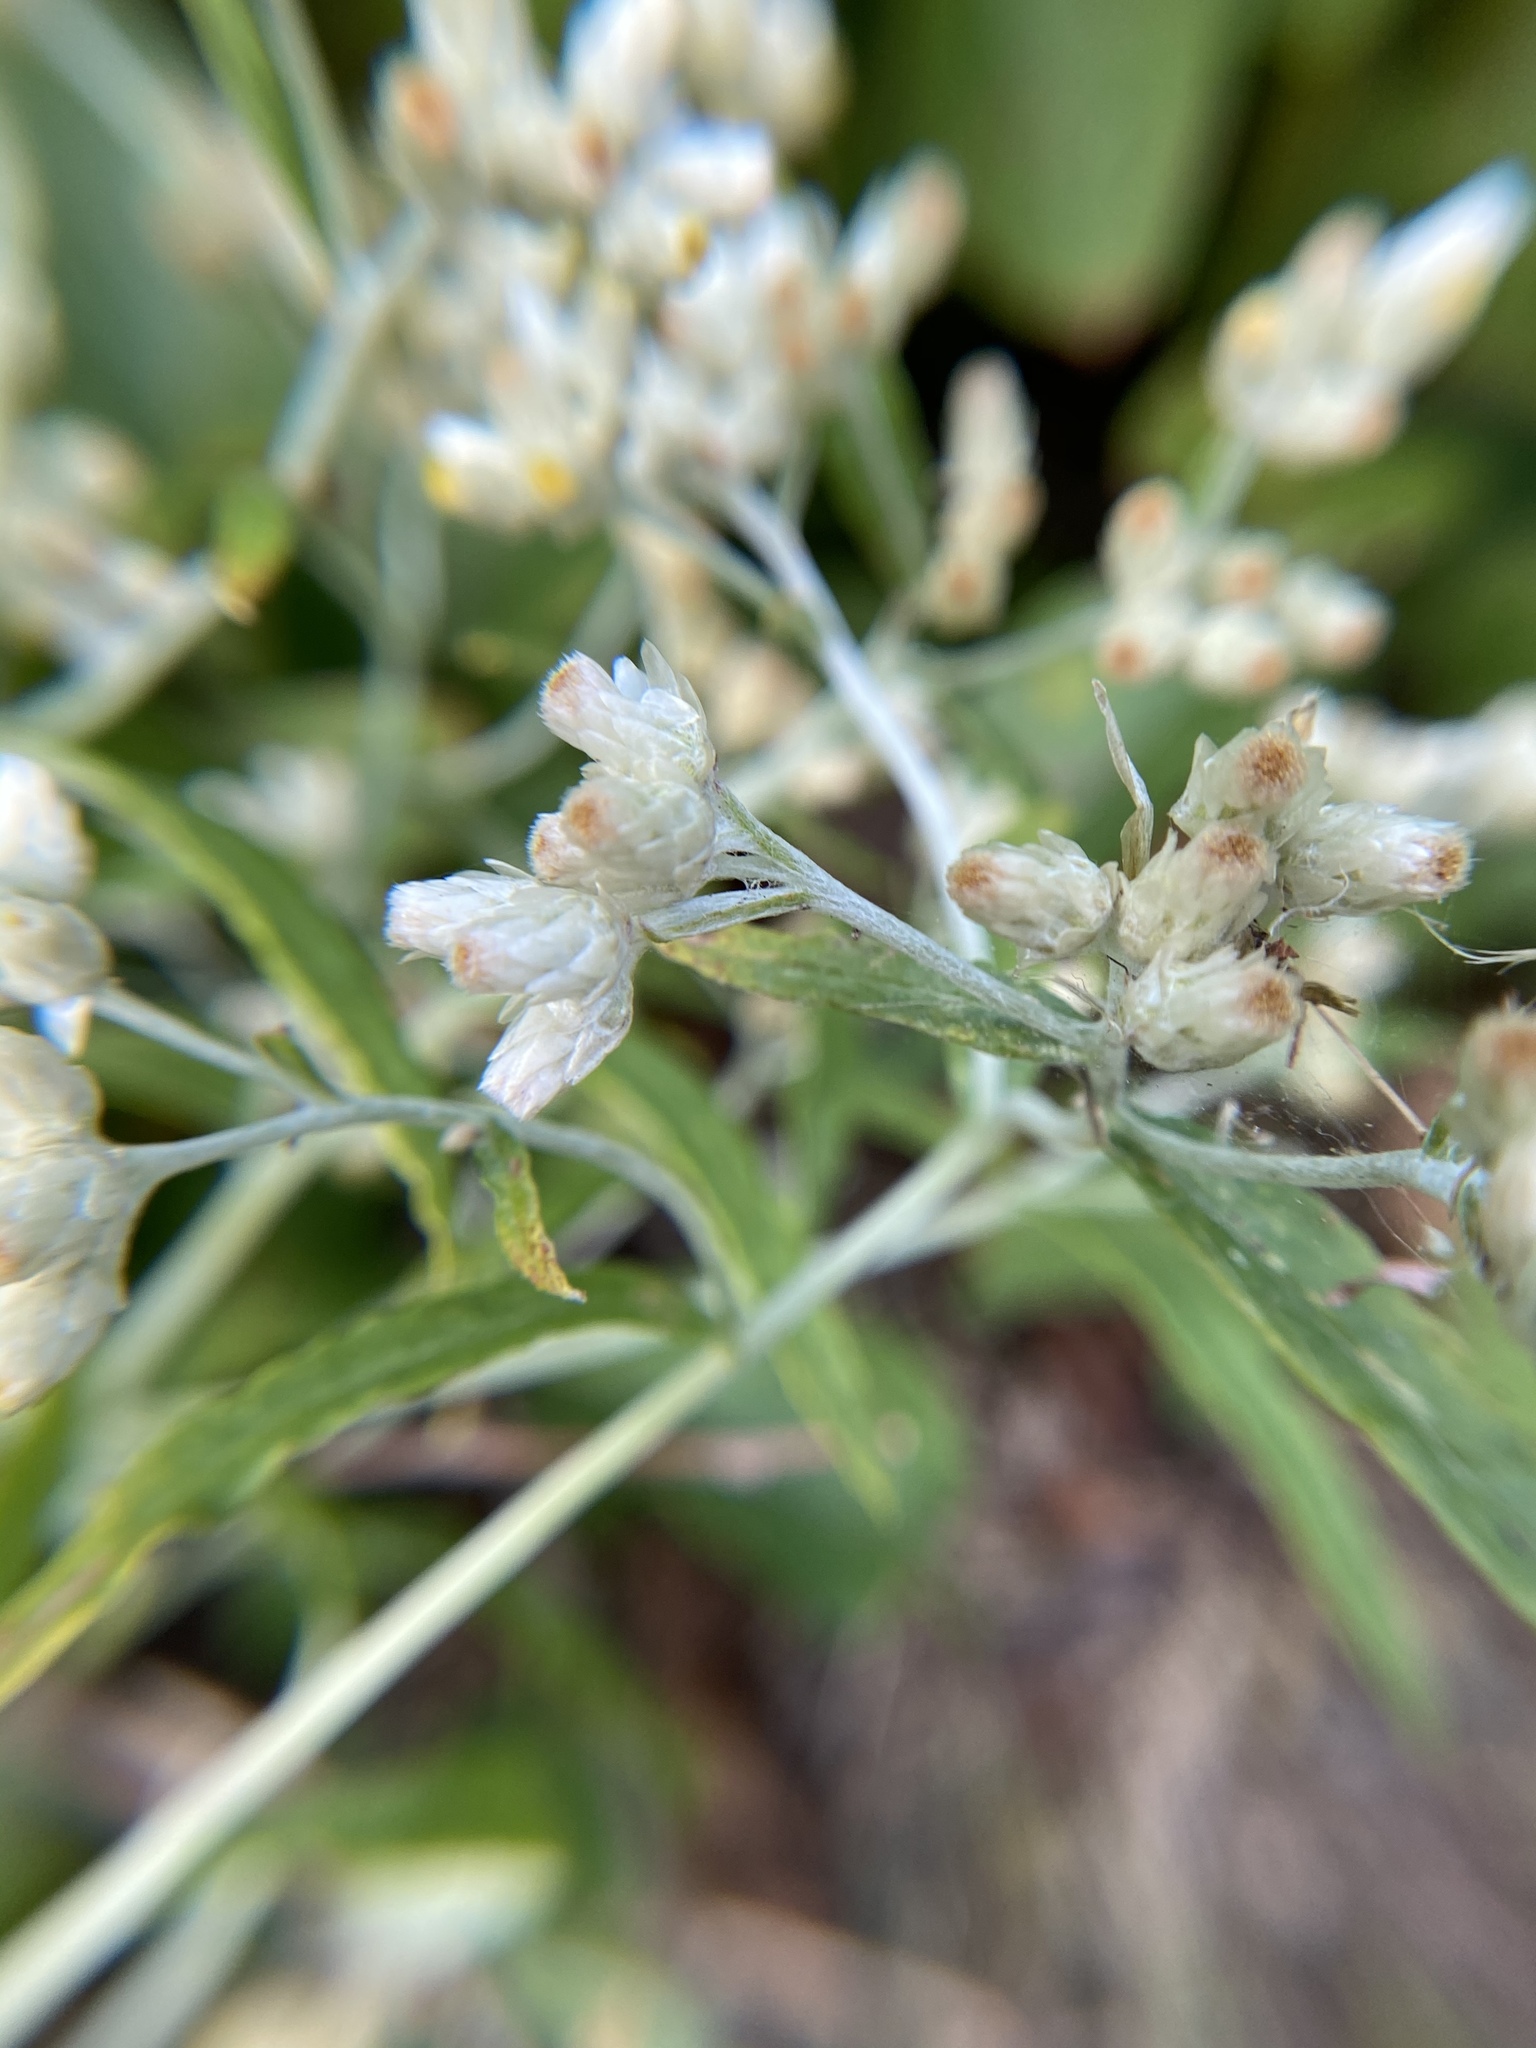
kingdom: Plantae
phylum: Tracheophyta
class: Magnoliopsida
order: Asterales
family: Asteraceae
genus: Pseudognaphalium
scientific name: Pseudognaphalium obtusifolium
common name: Eastern rabbit-tobacco
